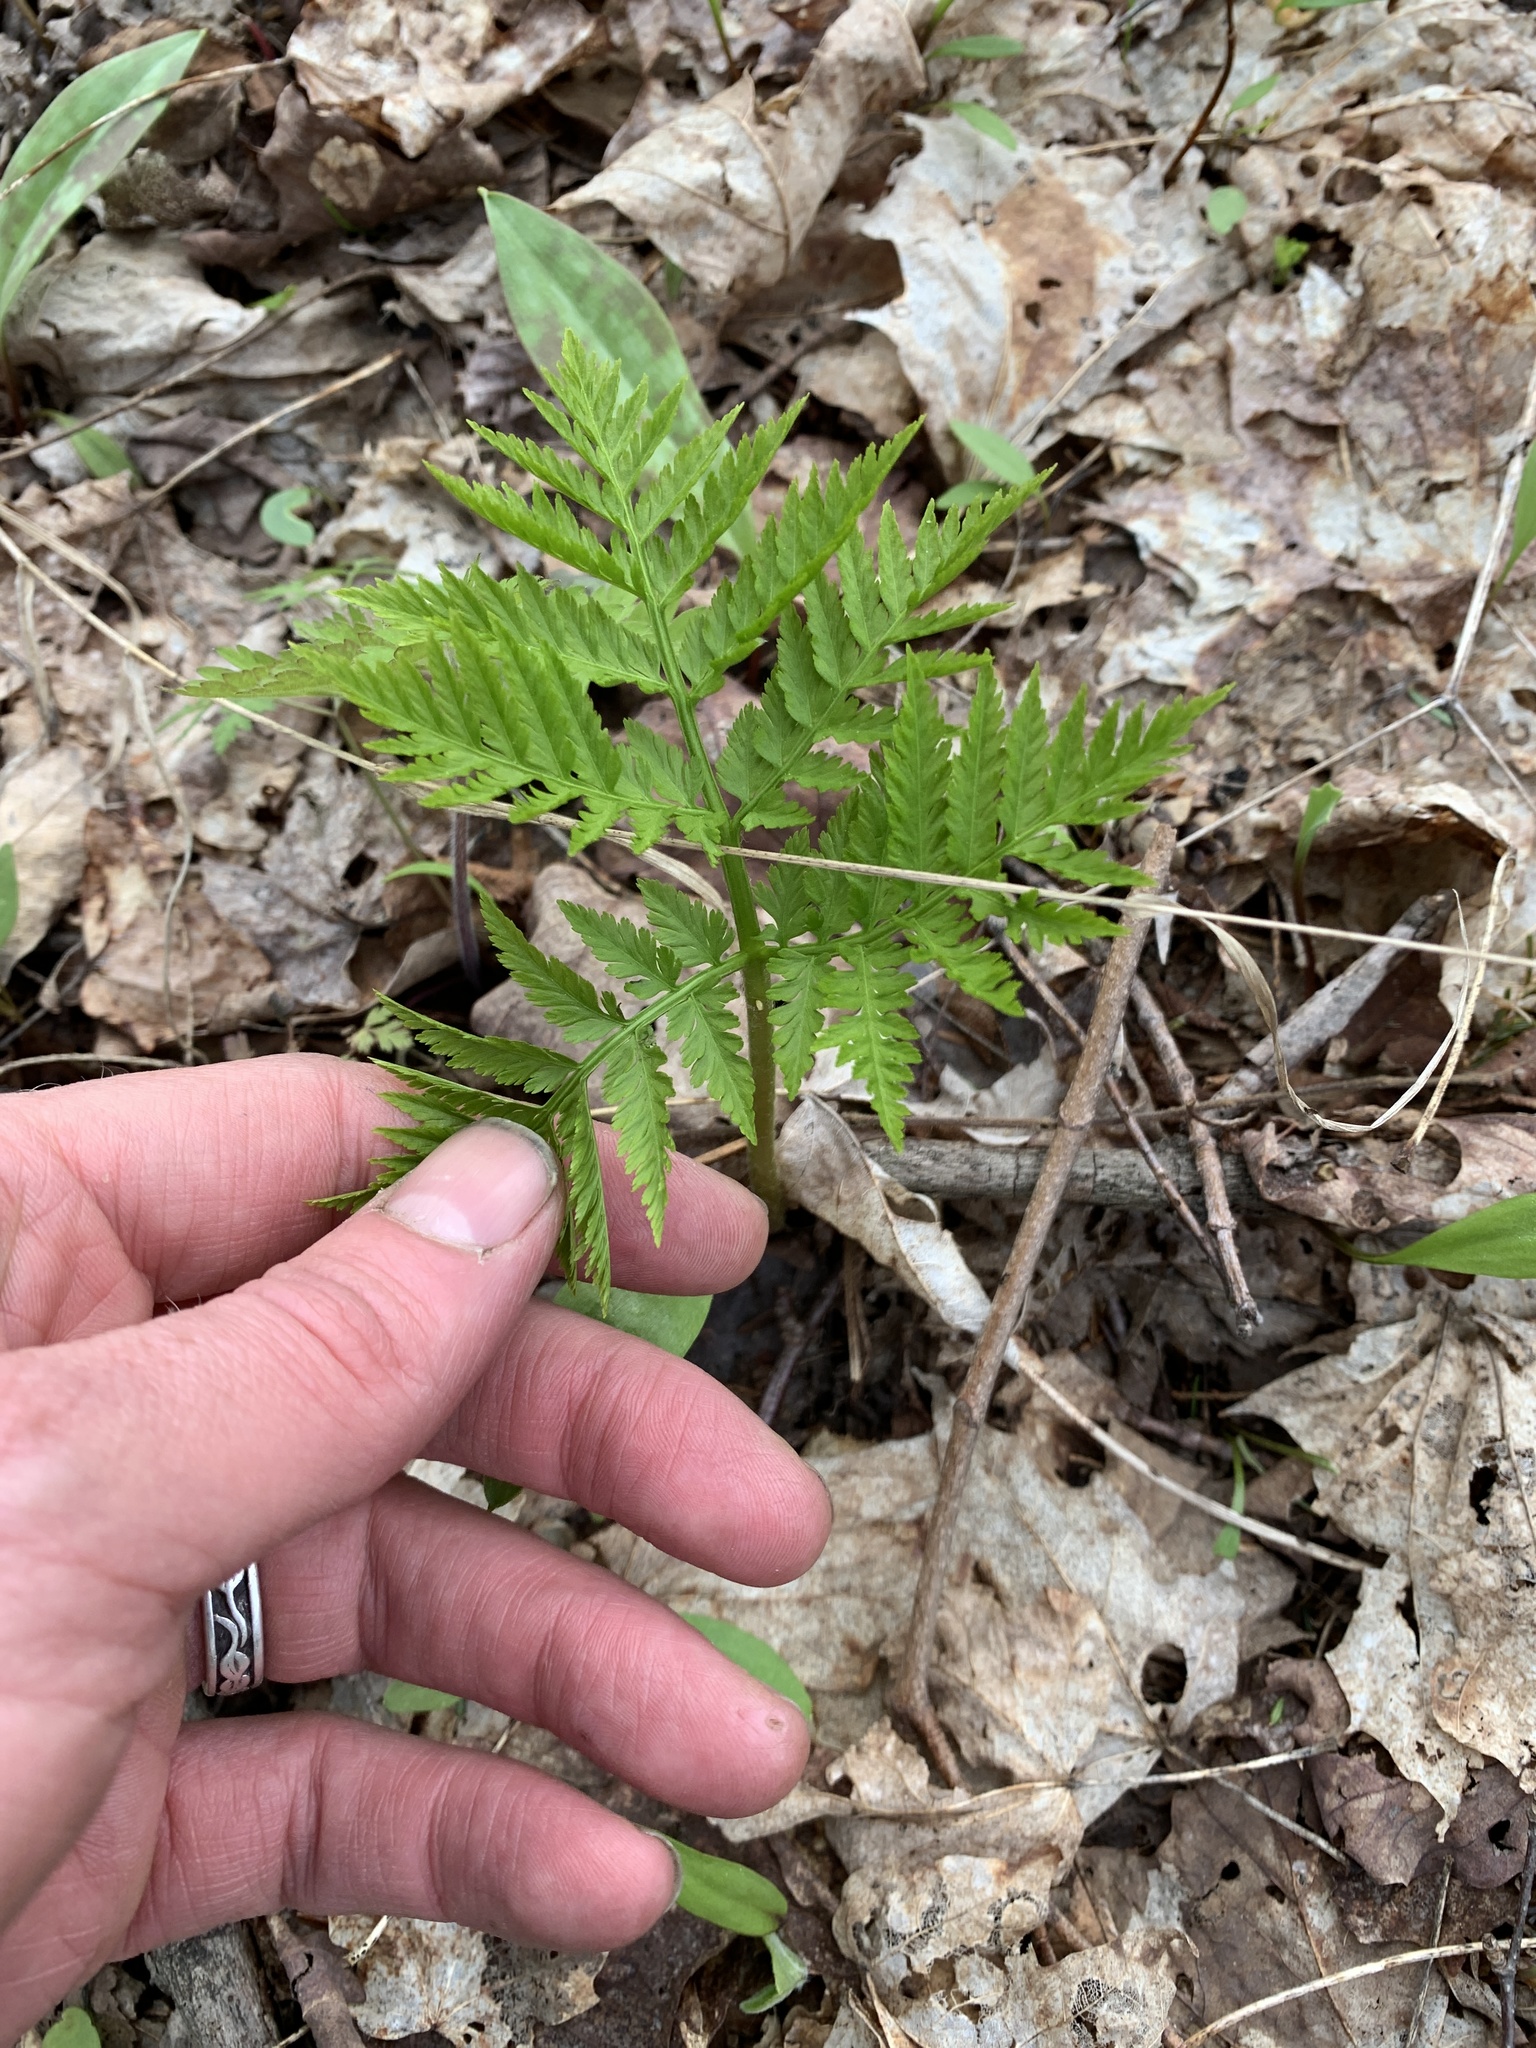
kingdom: Plantae
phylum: Tracheophyta
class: Polypodiopsida
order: Ophioglossales
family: Ophioglossaceae
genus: Botrypus
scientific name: Botrypus virginianus
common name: Common grapefern
